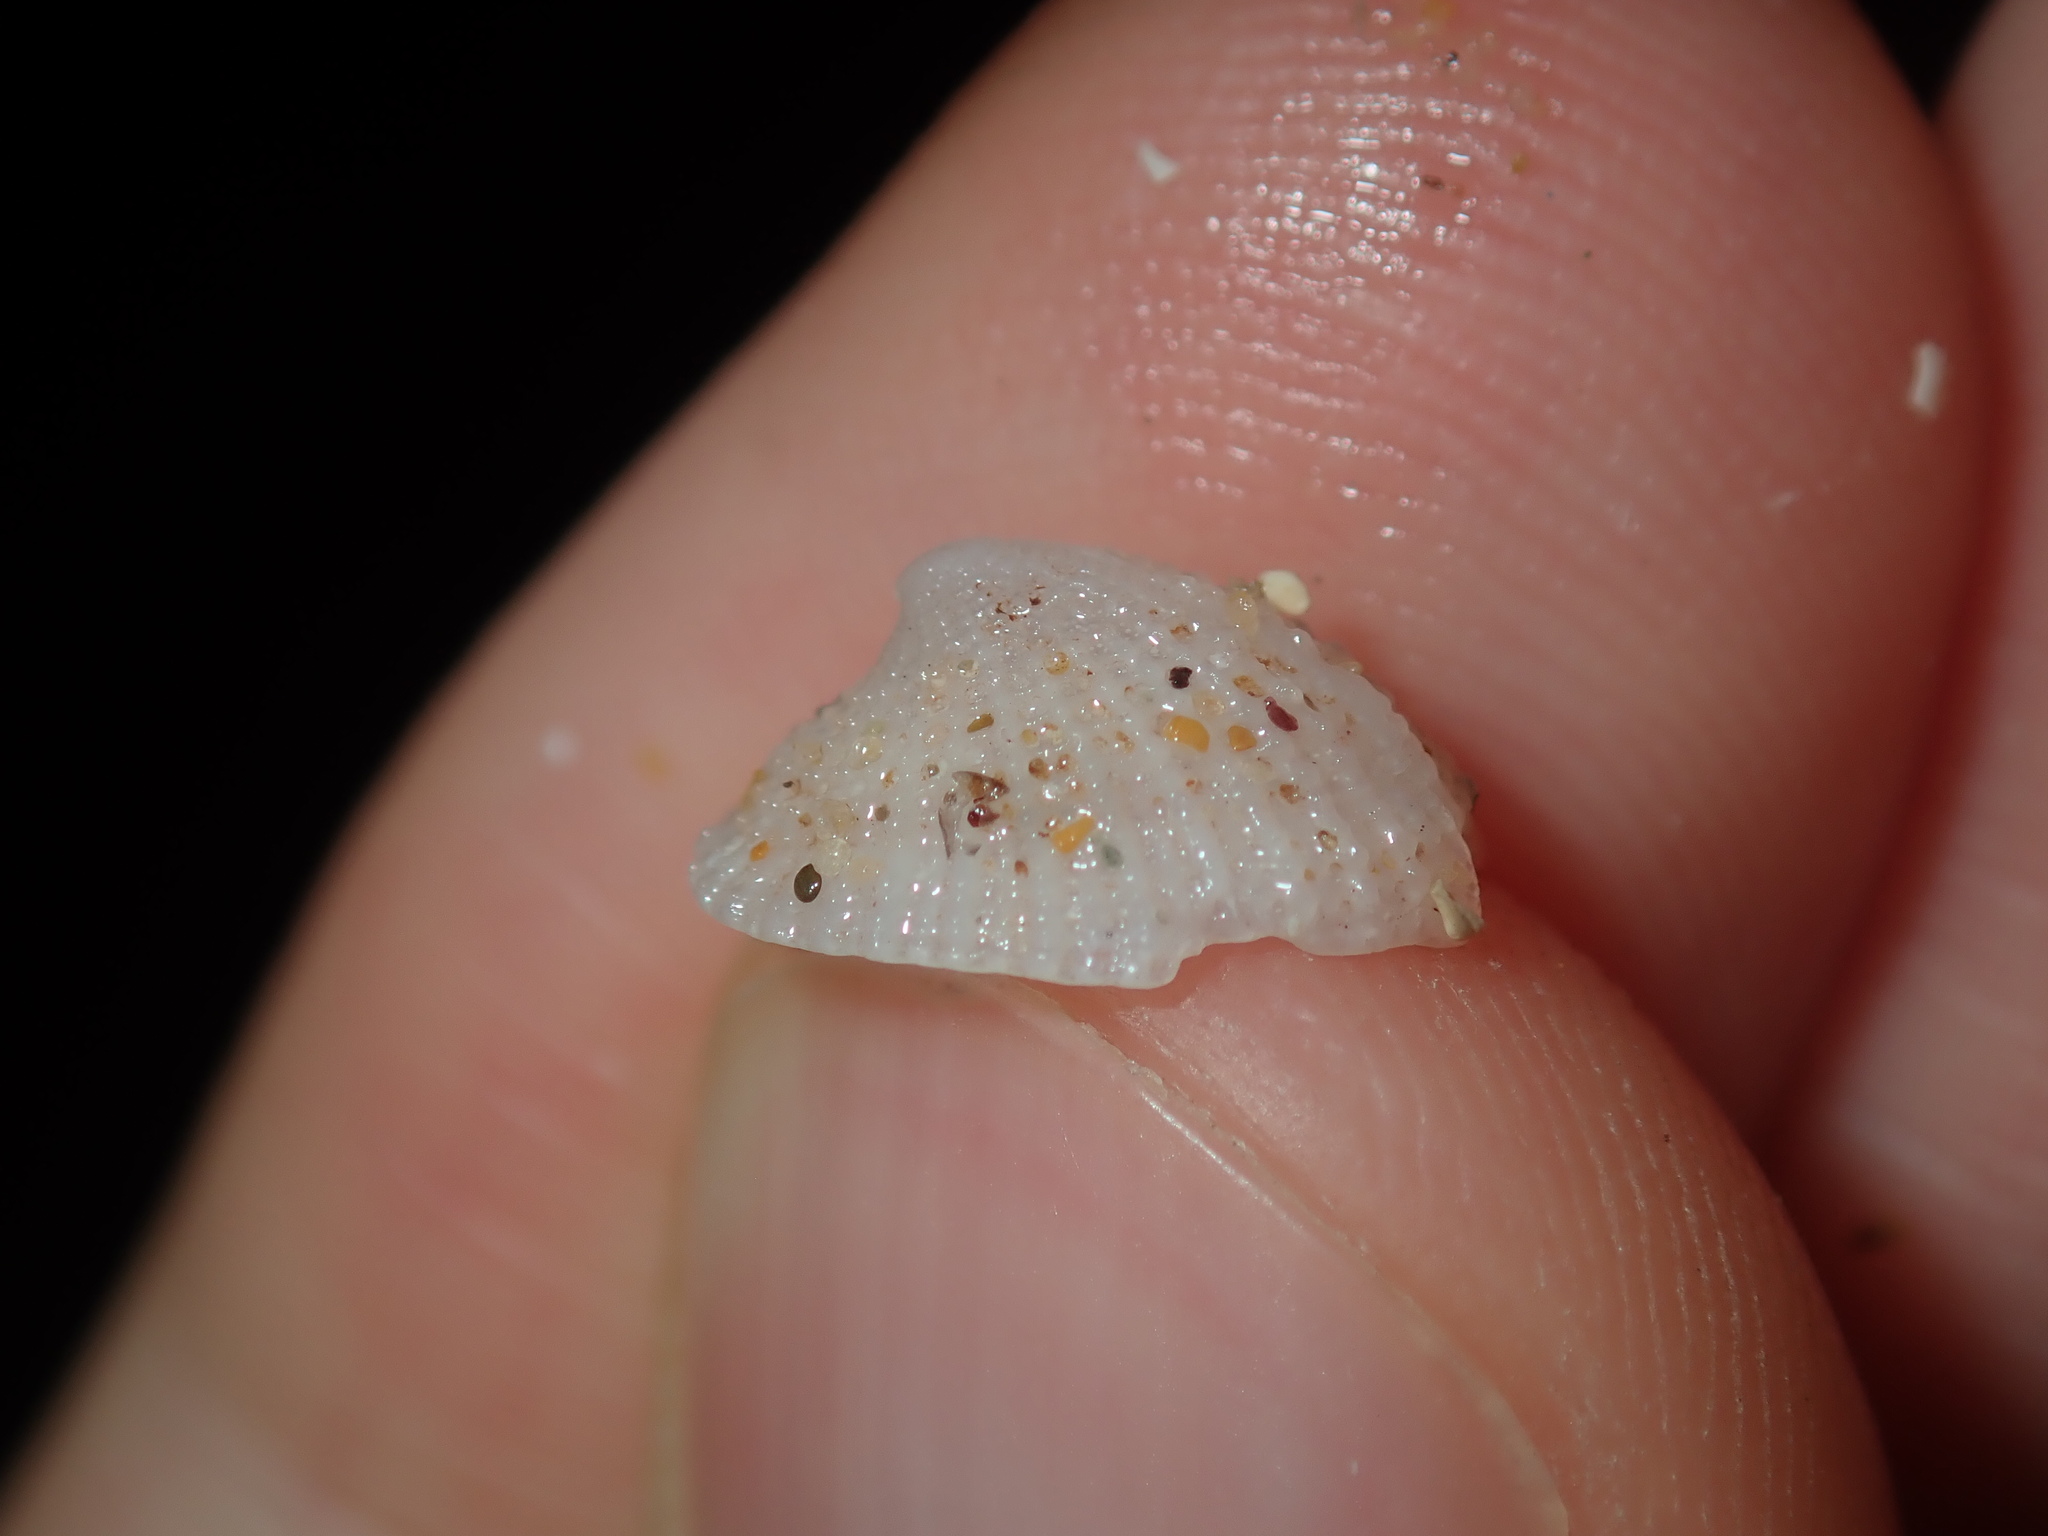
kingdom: Animalia
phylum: Mollusca
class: Gastropoda
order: Lepetellida
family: Fissurellidae
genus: Emarginula
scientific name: Emarginula candida
